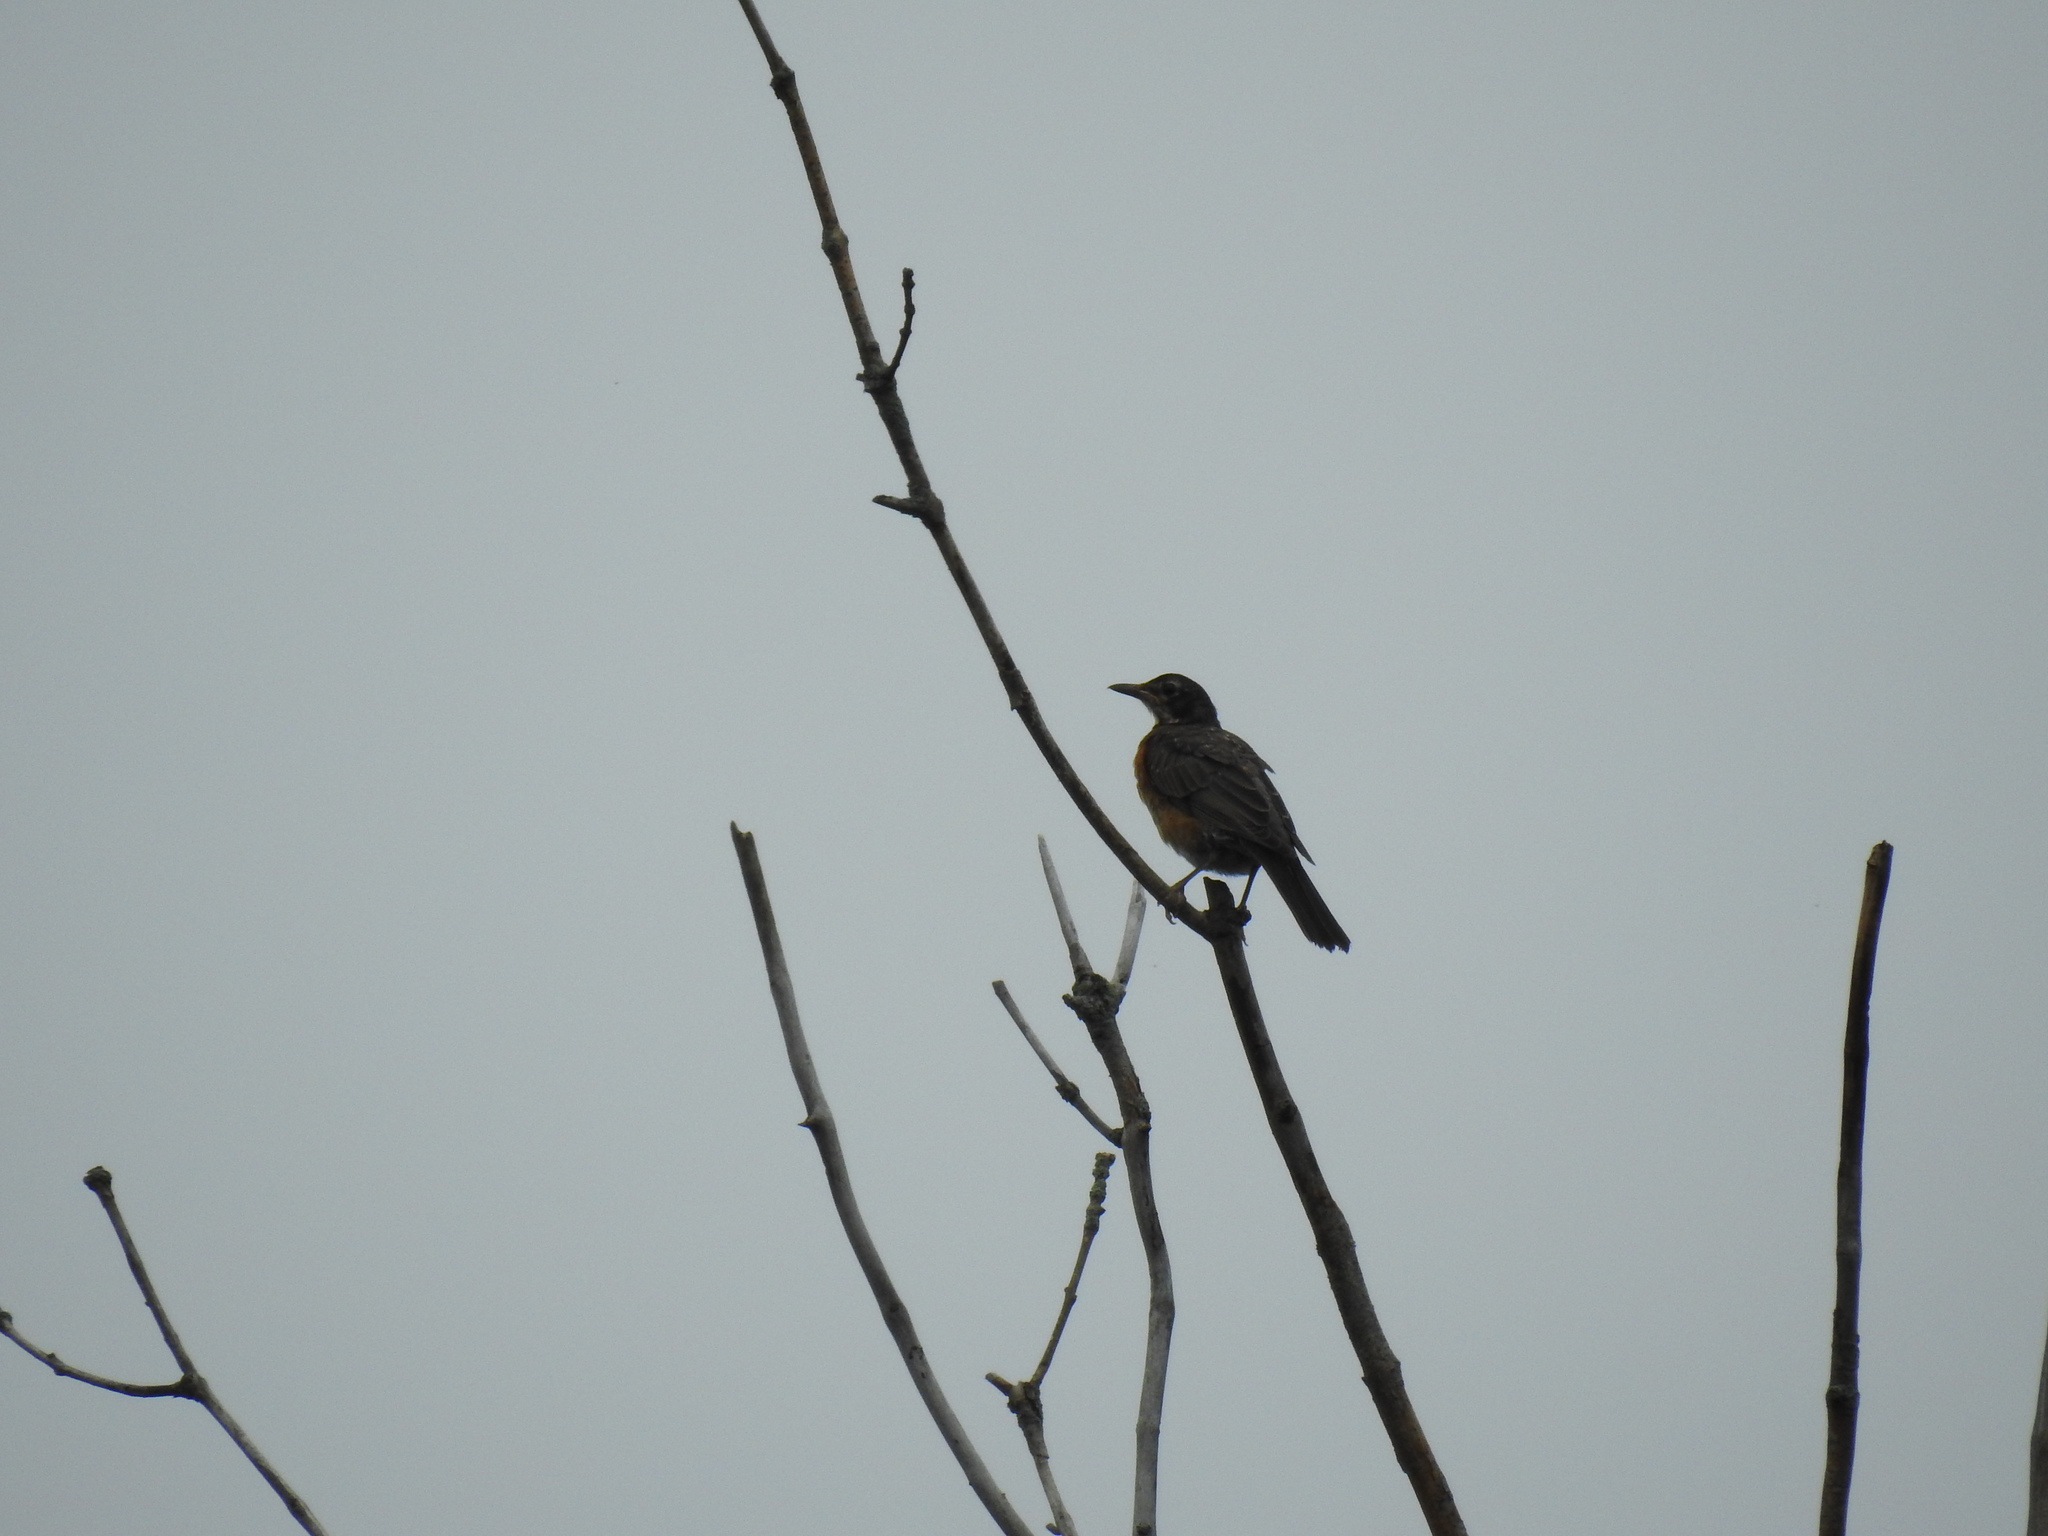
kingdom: Animalia
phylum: Chordata
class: Aves
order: Passeriformes
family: Turdidae
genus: Turdus
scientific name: Turdus migratorius
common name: American robin
